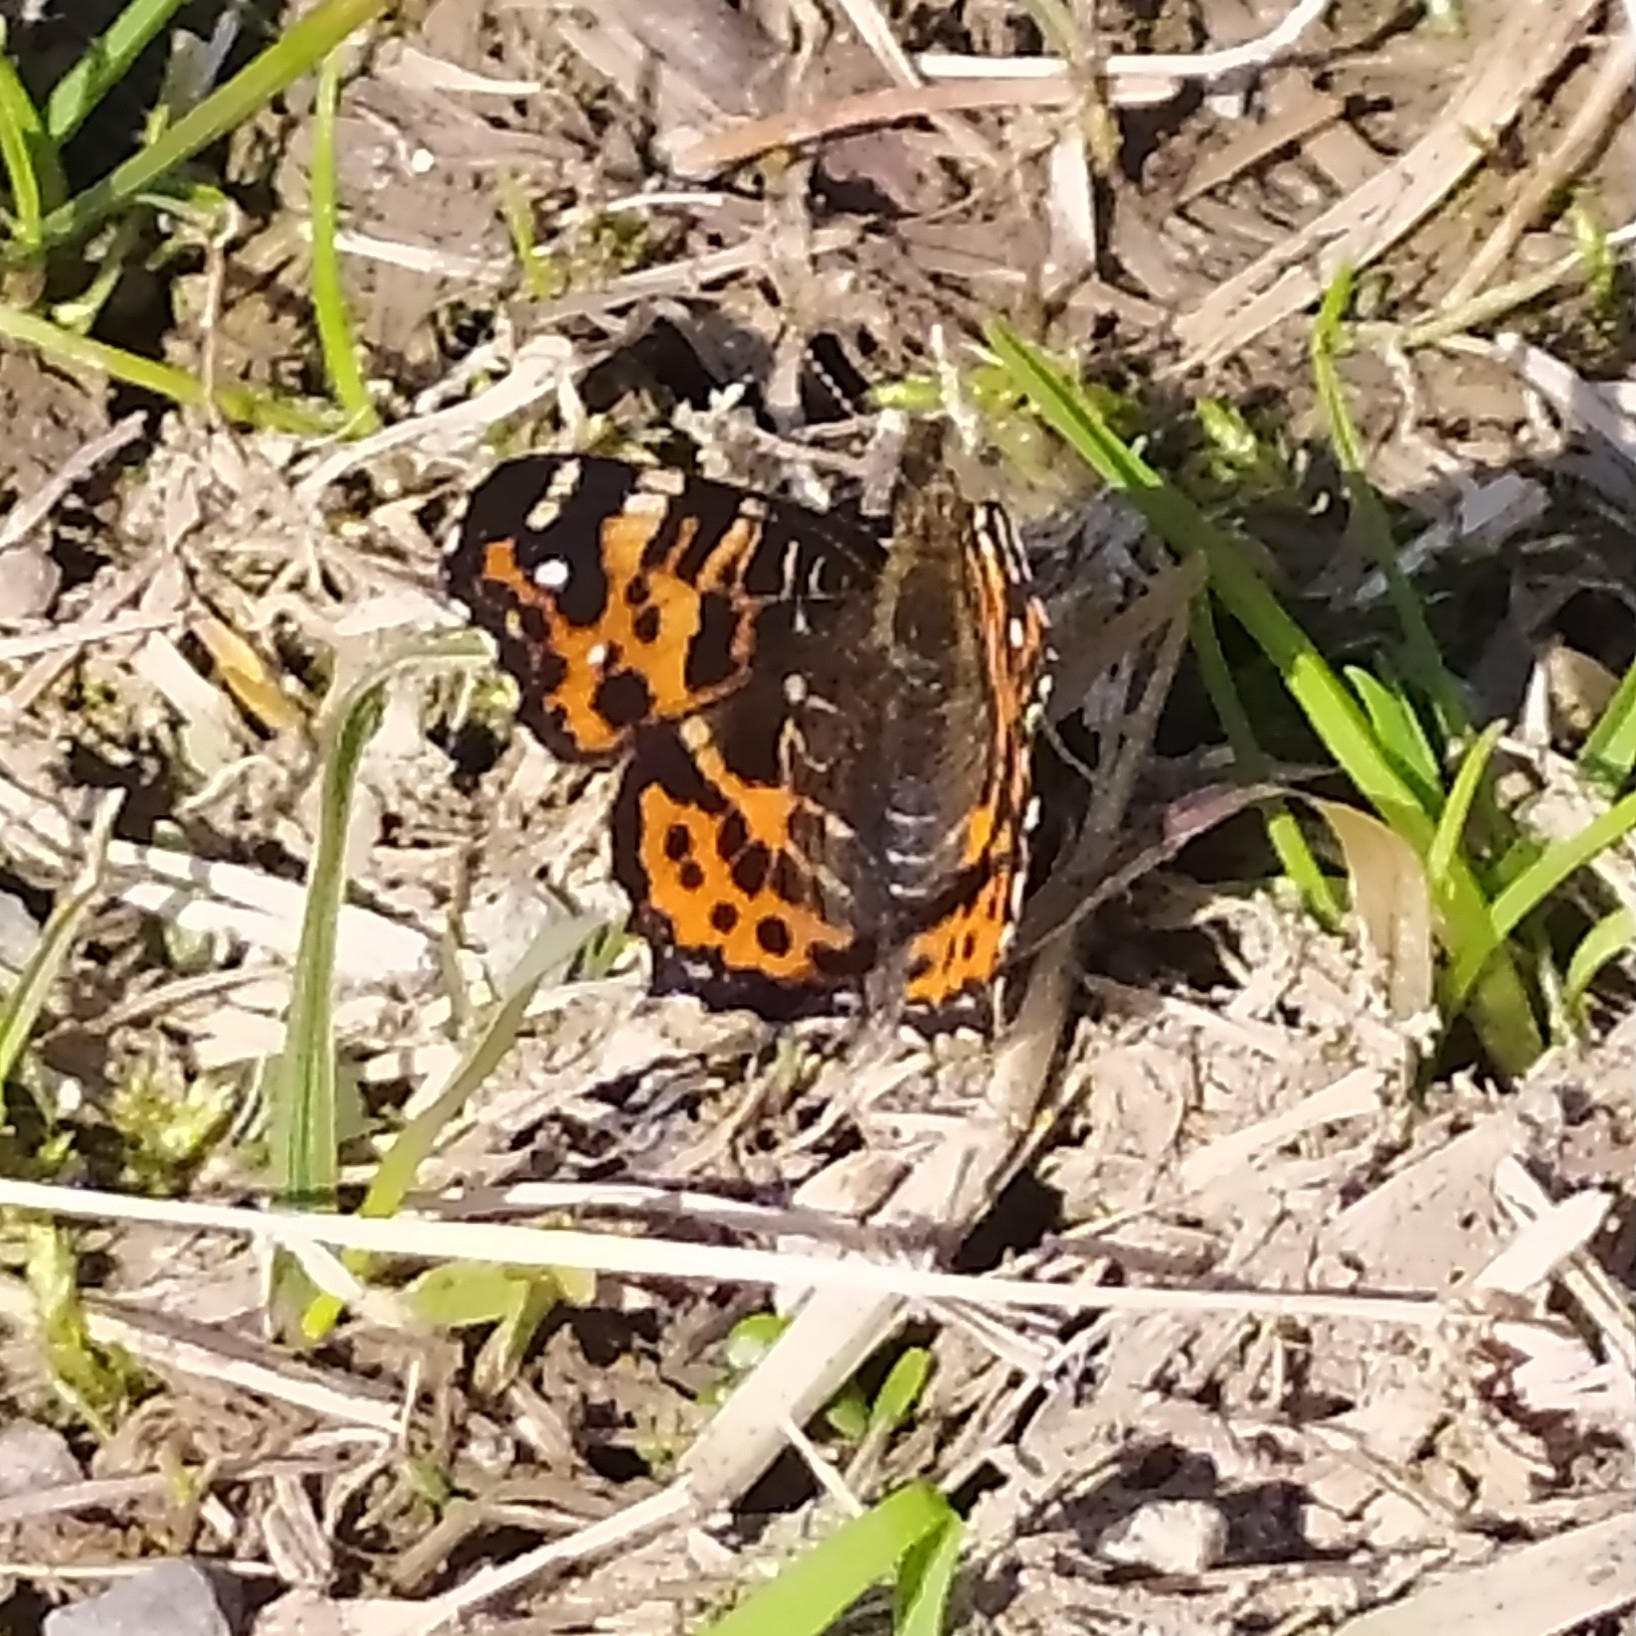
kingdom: Animalia
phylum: Arthropoda
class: Insecta
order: Lepidoptera
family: Nymphalidae
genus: Araschnia
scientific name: Araschnia levana
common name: Map butterfly
